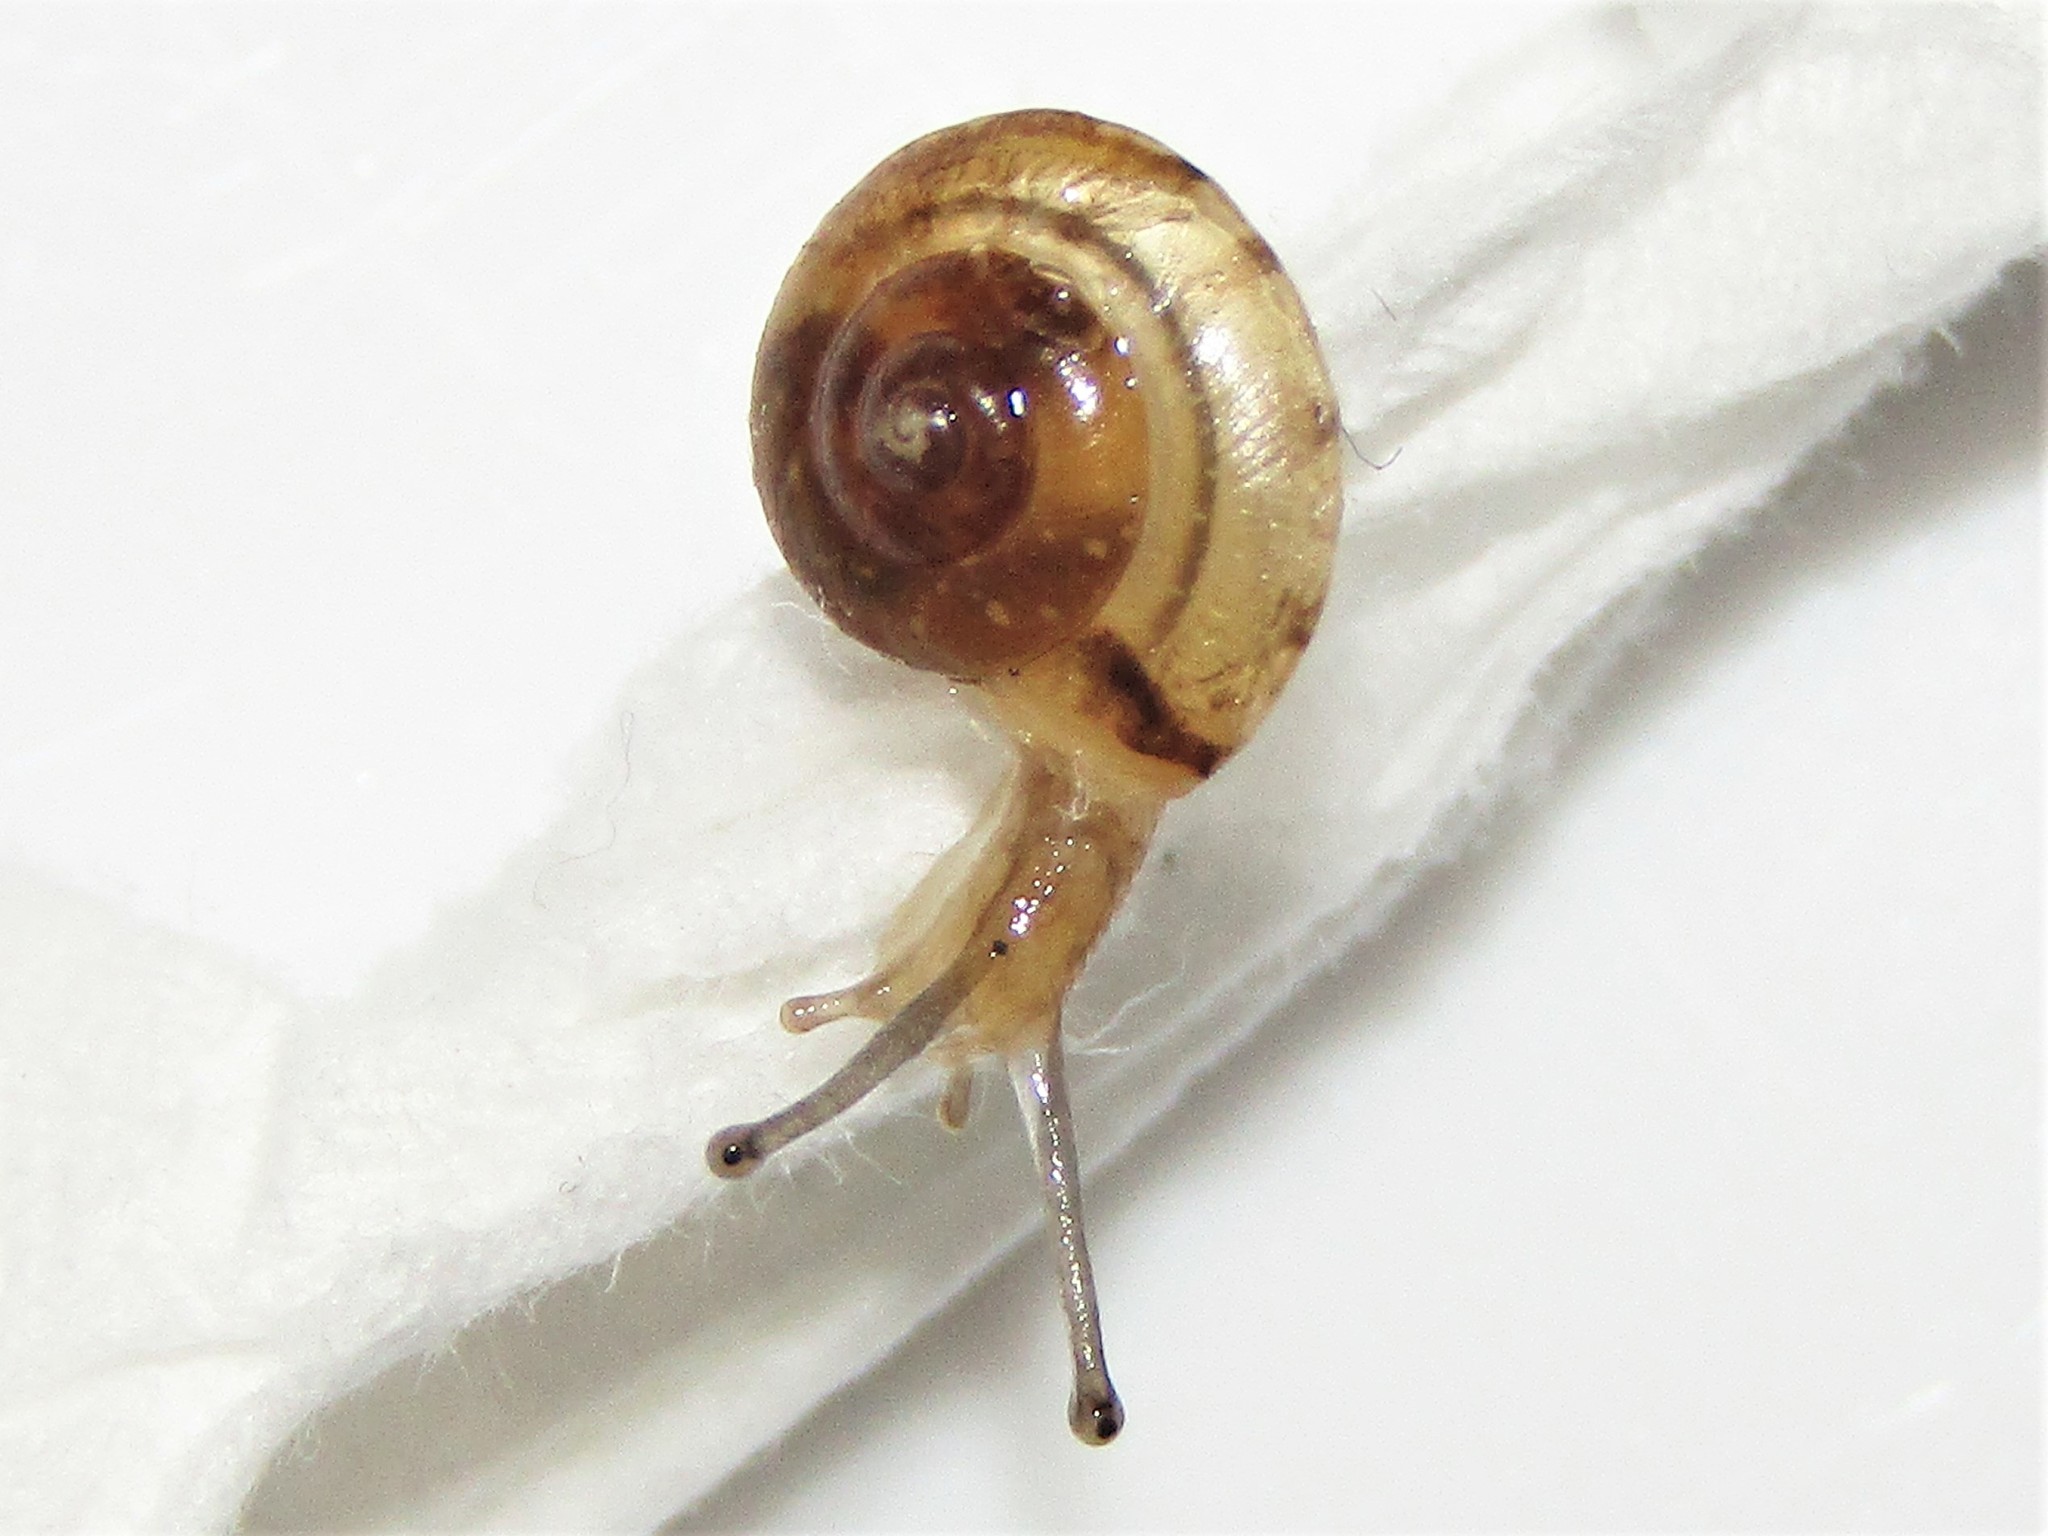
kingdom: Animalia
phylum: Mollusca
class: Gastropoda
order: Stylommatophora
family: Hygromiidae
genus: Hygromia
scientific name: Hygromia cinctella
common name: Girdled snail
